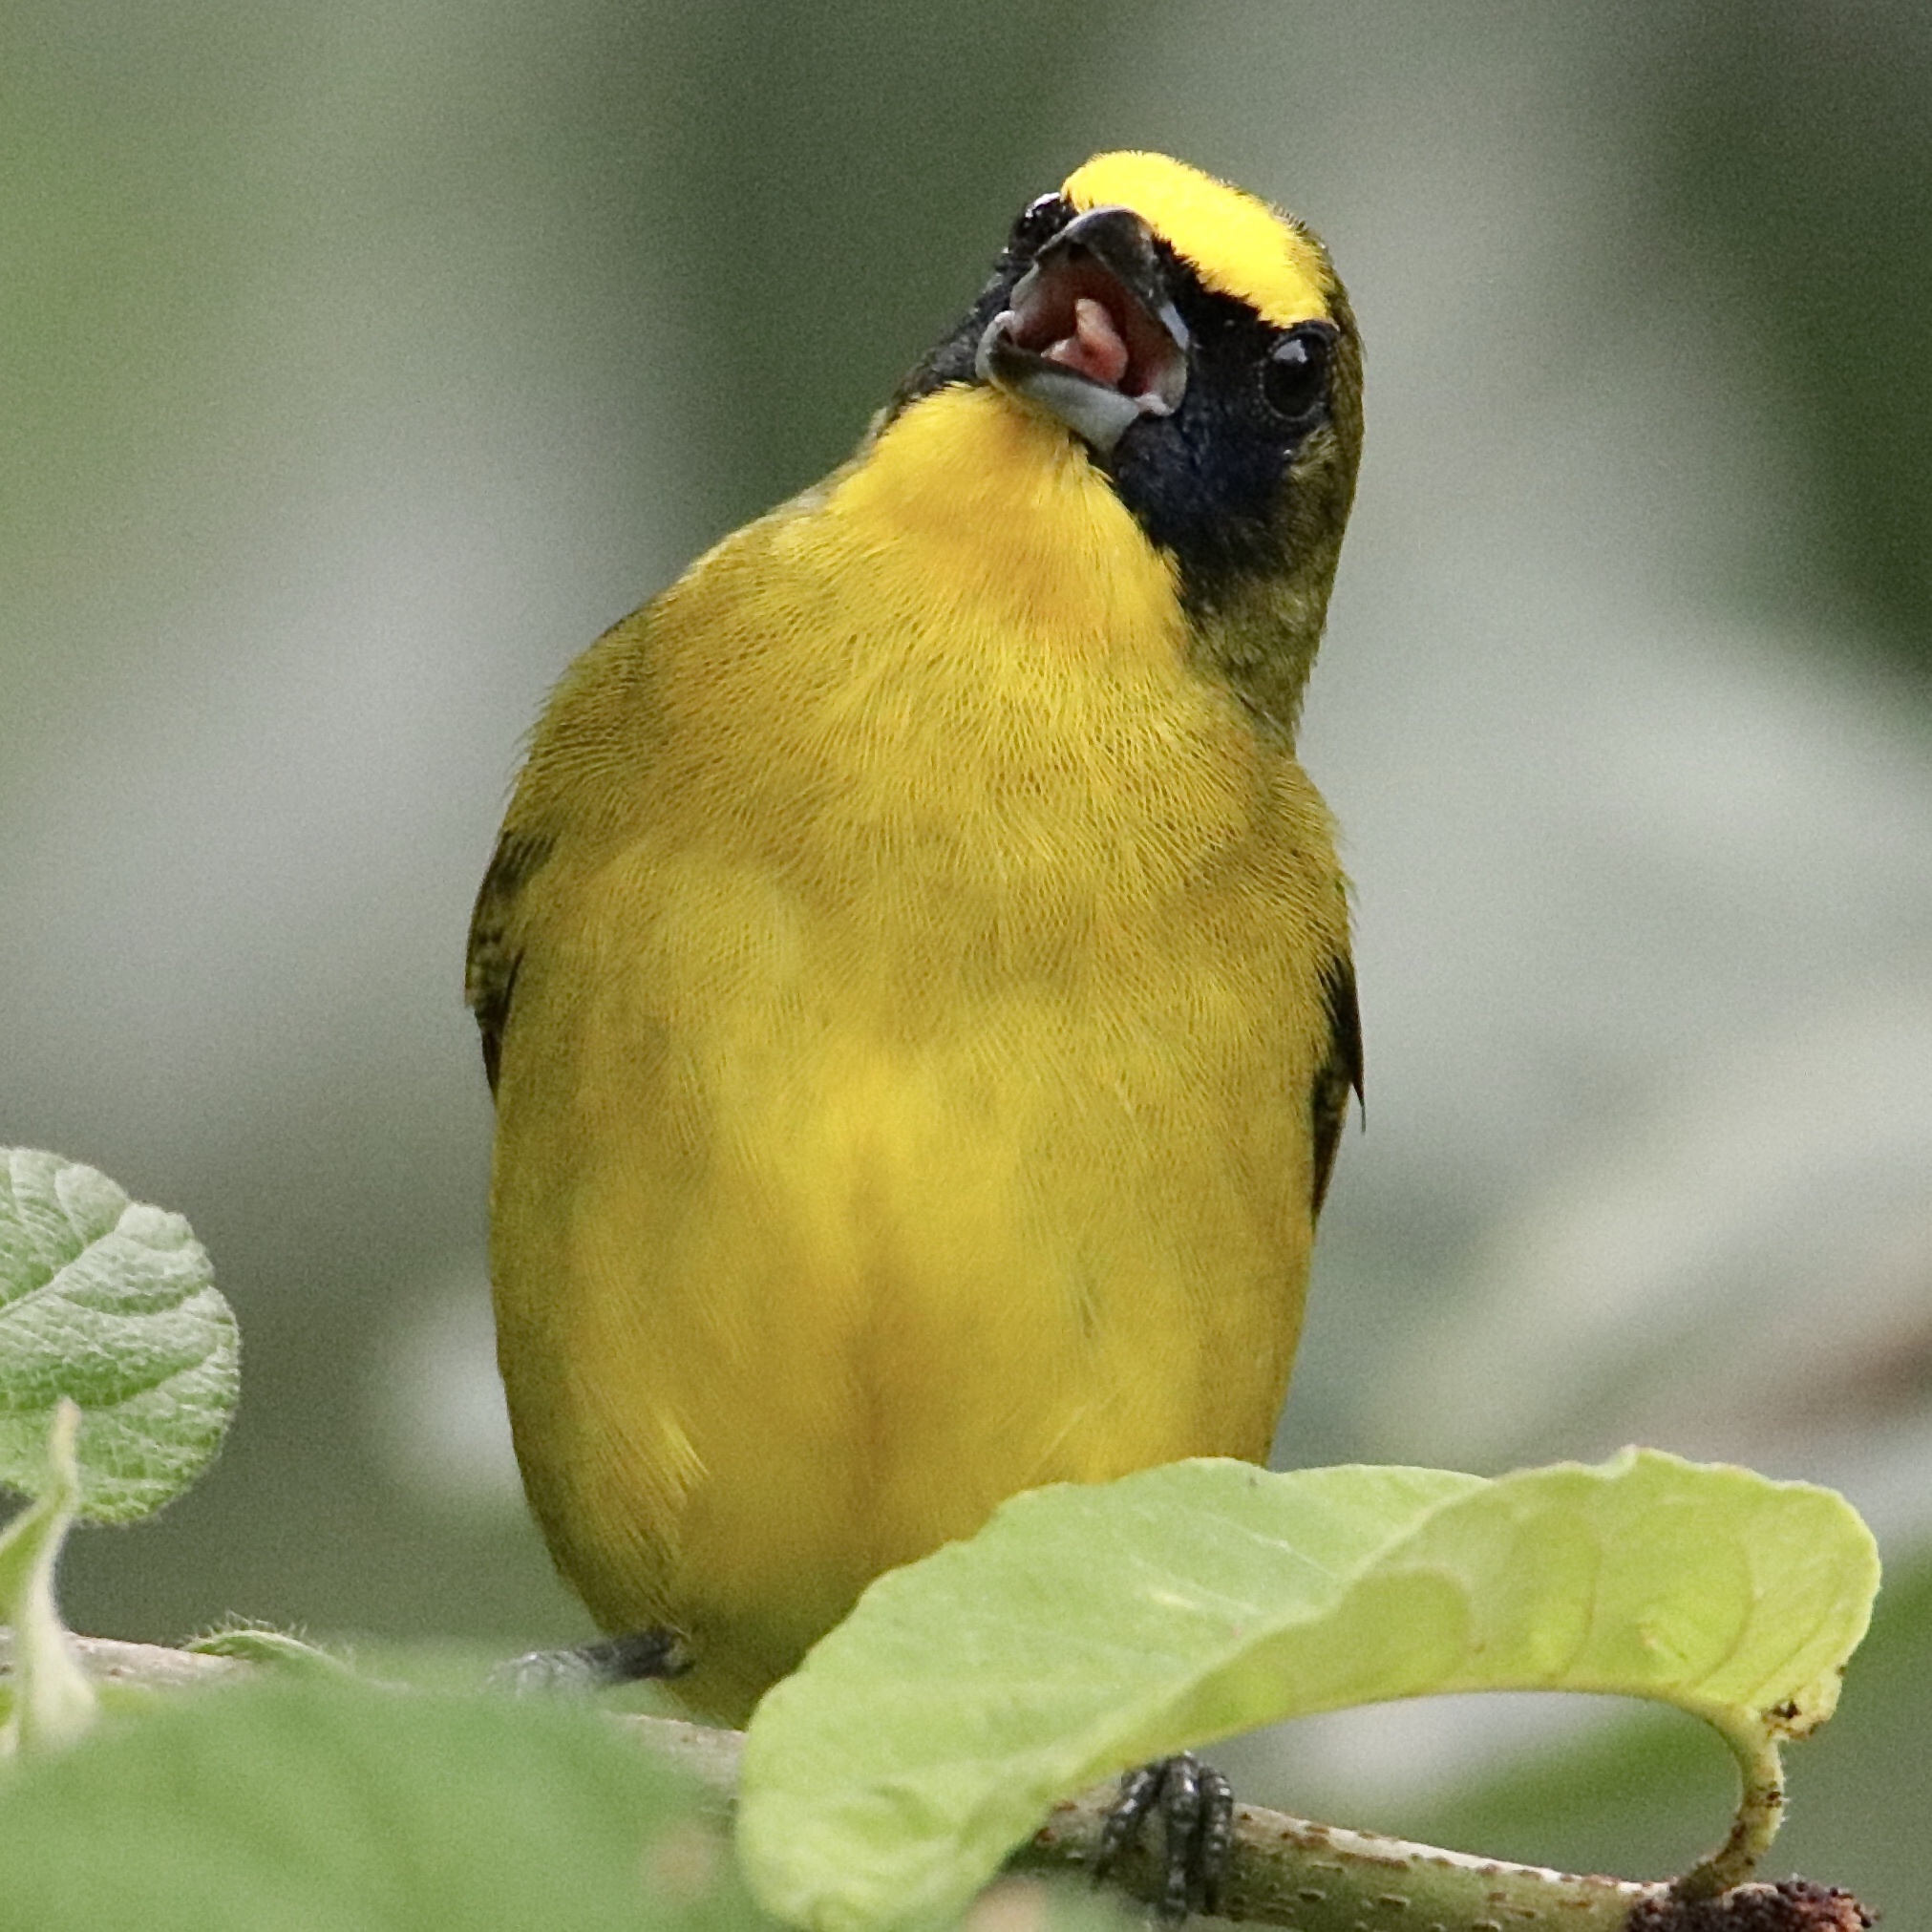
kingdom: Animalia
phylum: Chordata
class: Aves
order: Passeriformes
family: Fringillidae
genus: Euphonia
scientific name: Euphonia laniirostris
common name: Thick-billed euphonia
